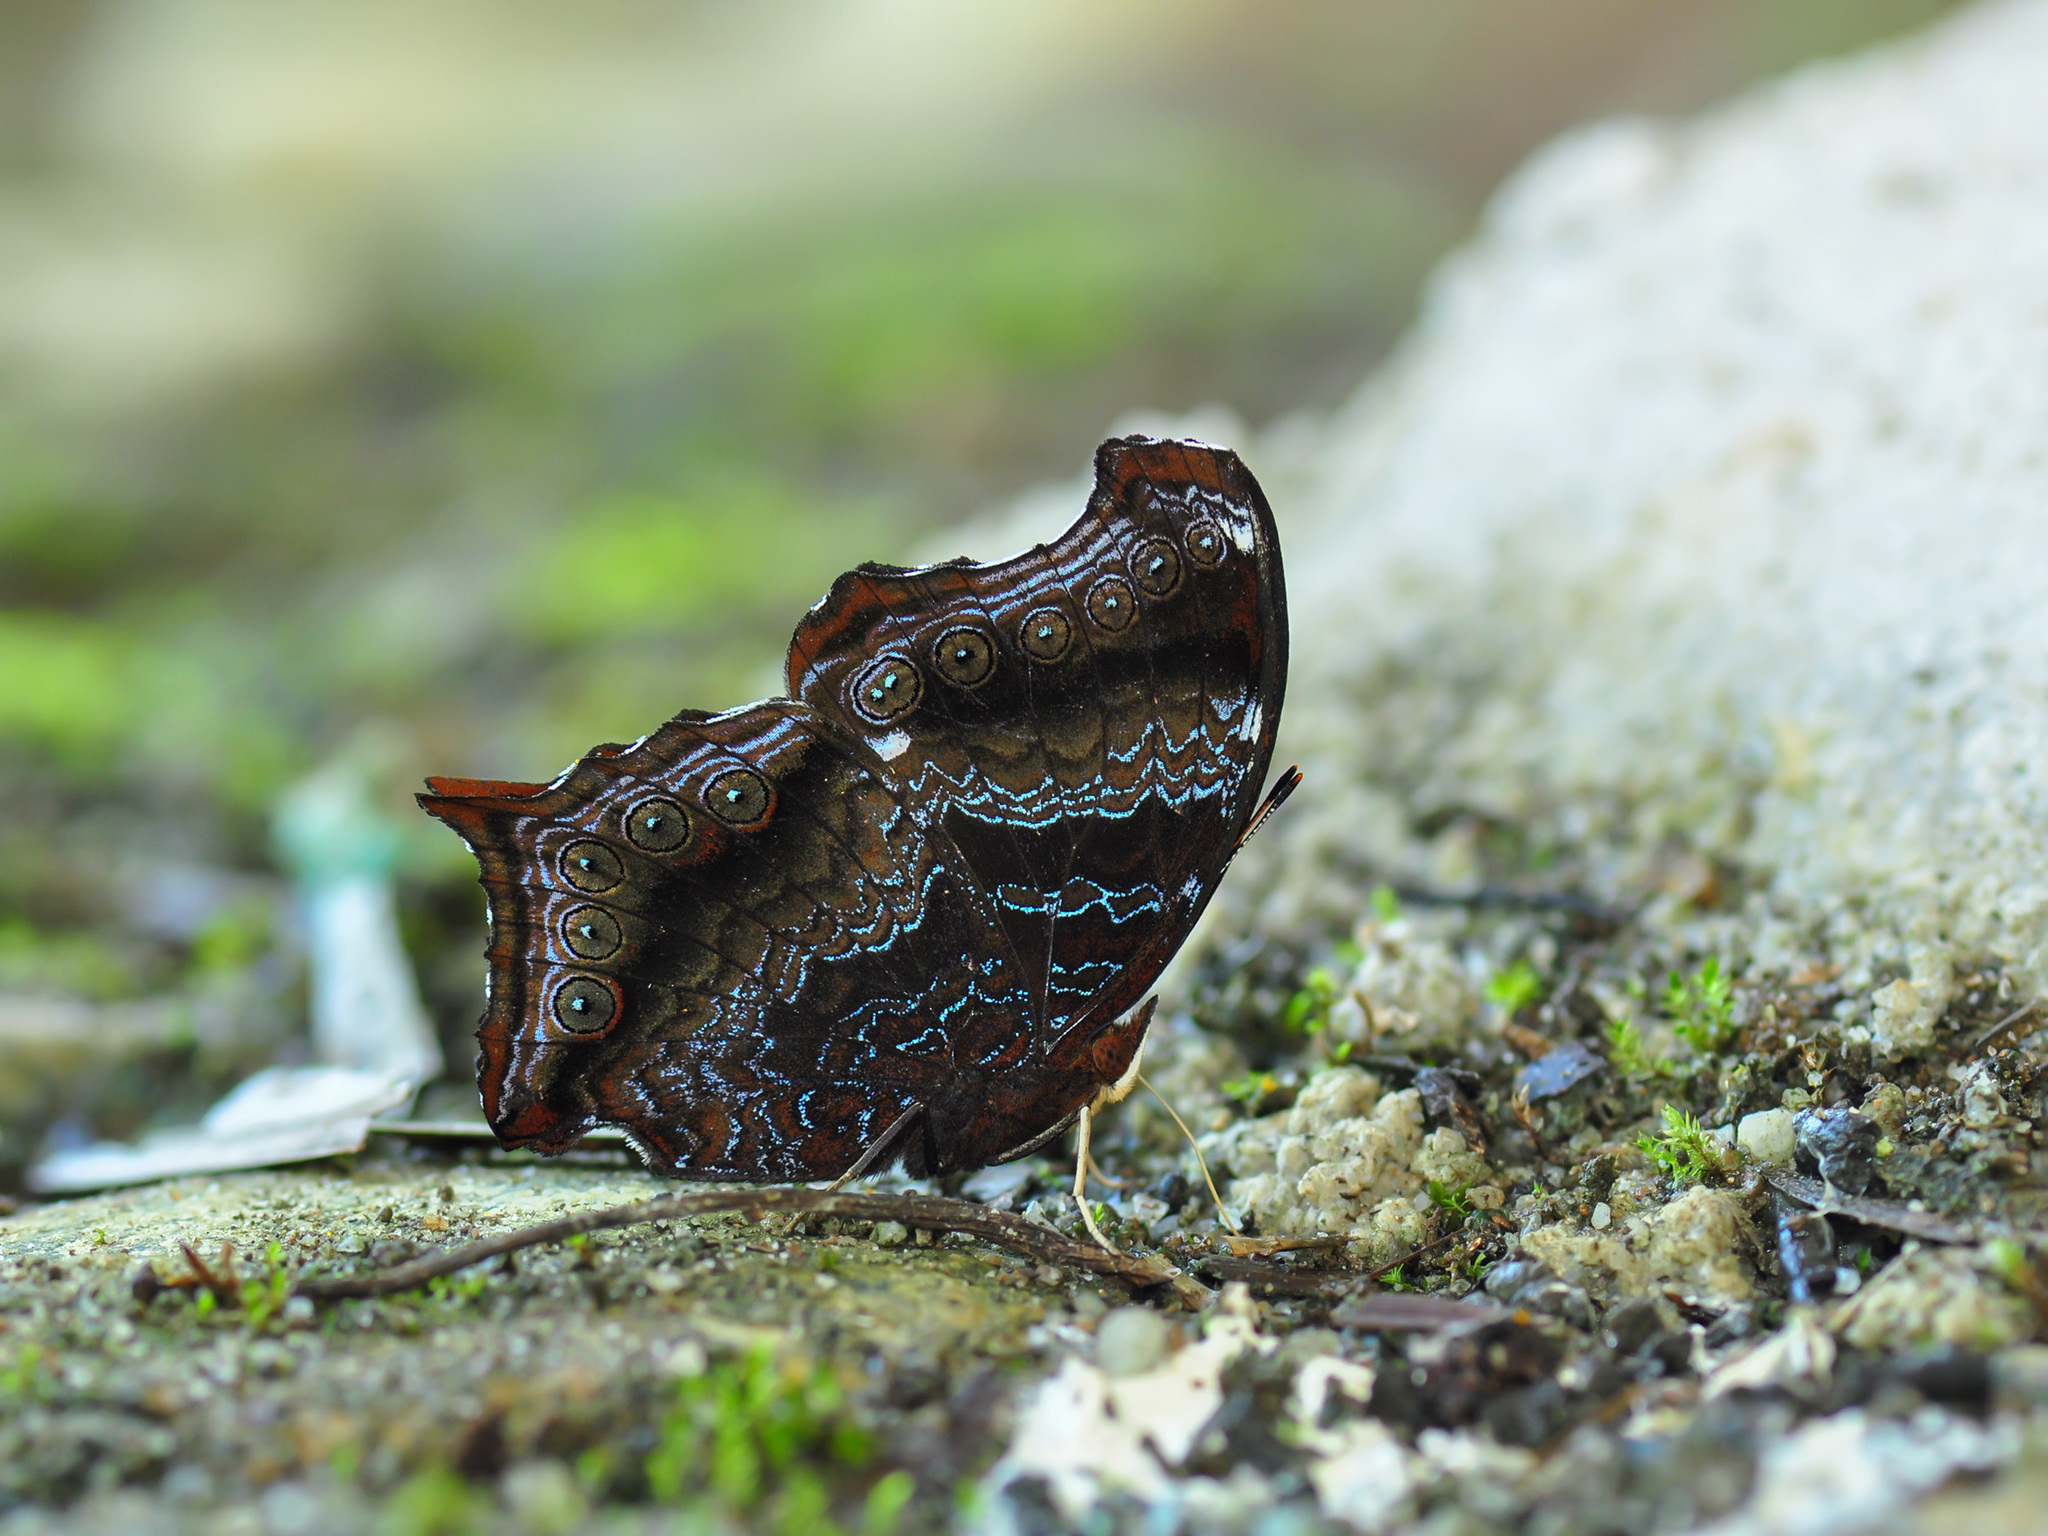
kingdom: Animalia
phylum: Arthropoda
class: Insecta
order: Lepidoptera
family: Nymphalidae
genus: Rhinopalpa
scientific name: Rhinopalpa polynice
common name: Wizard
